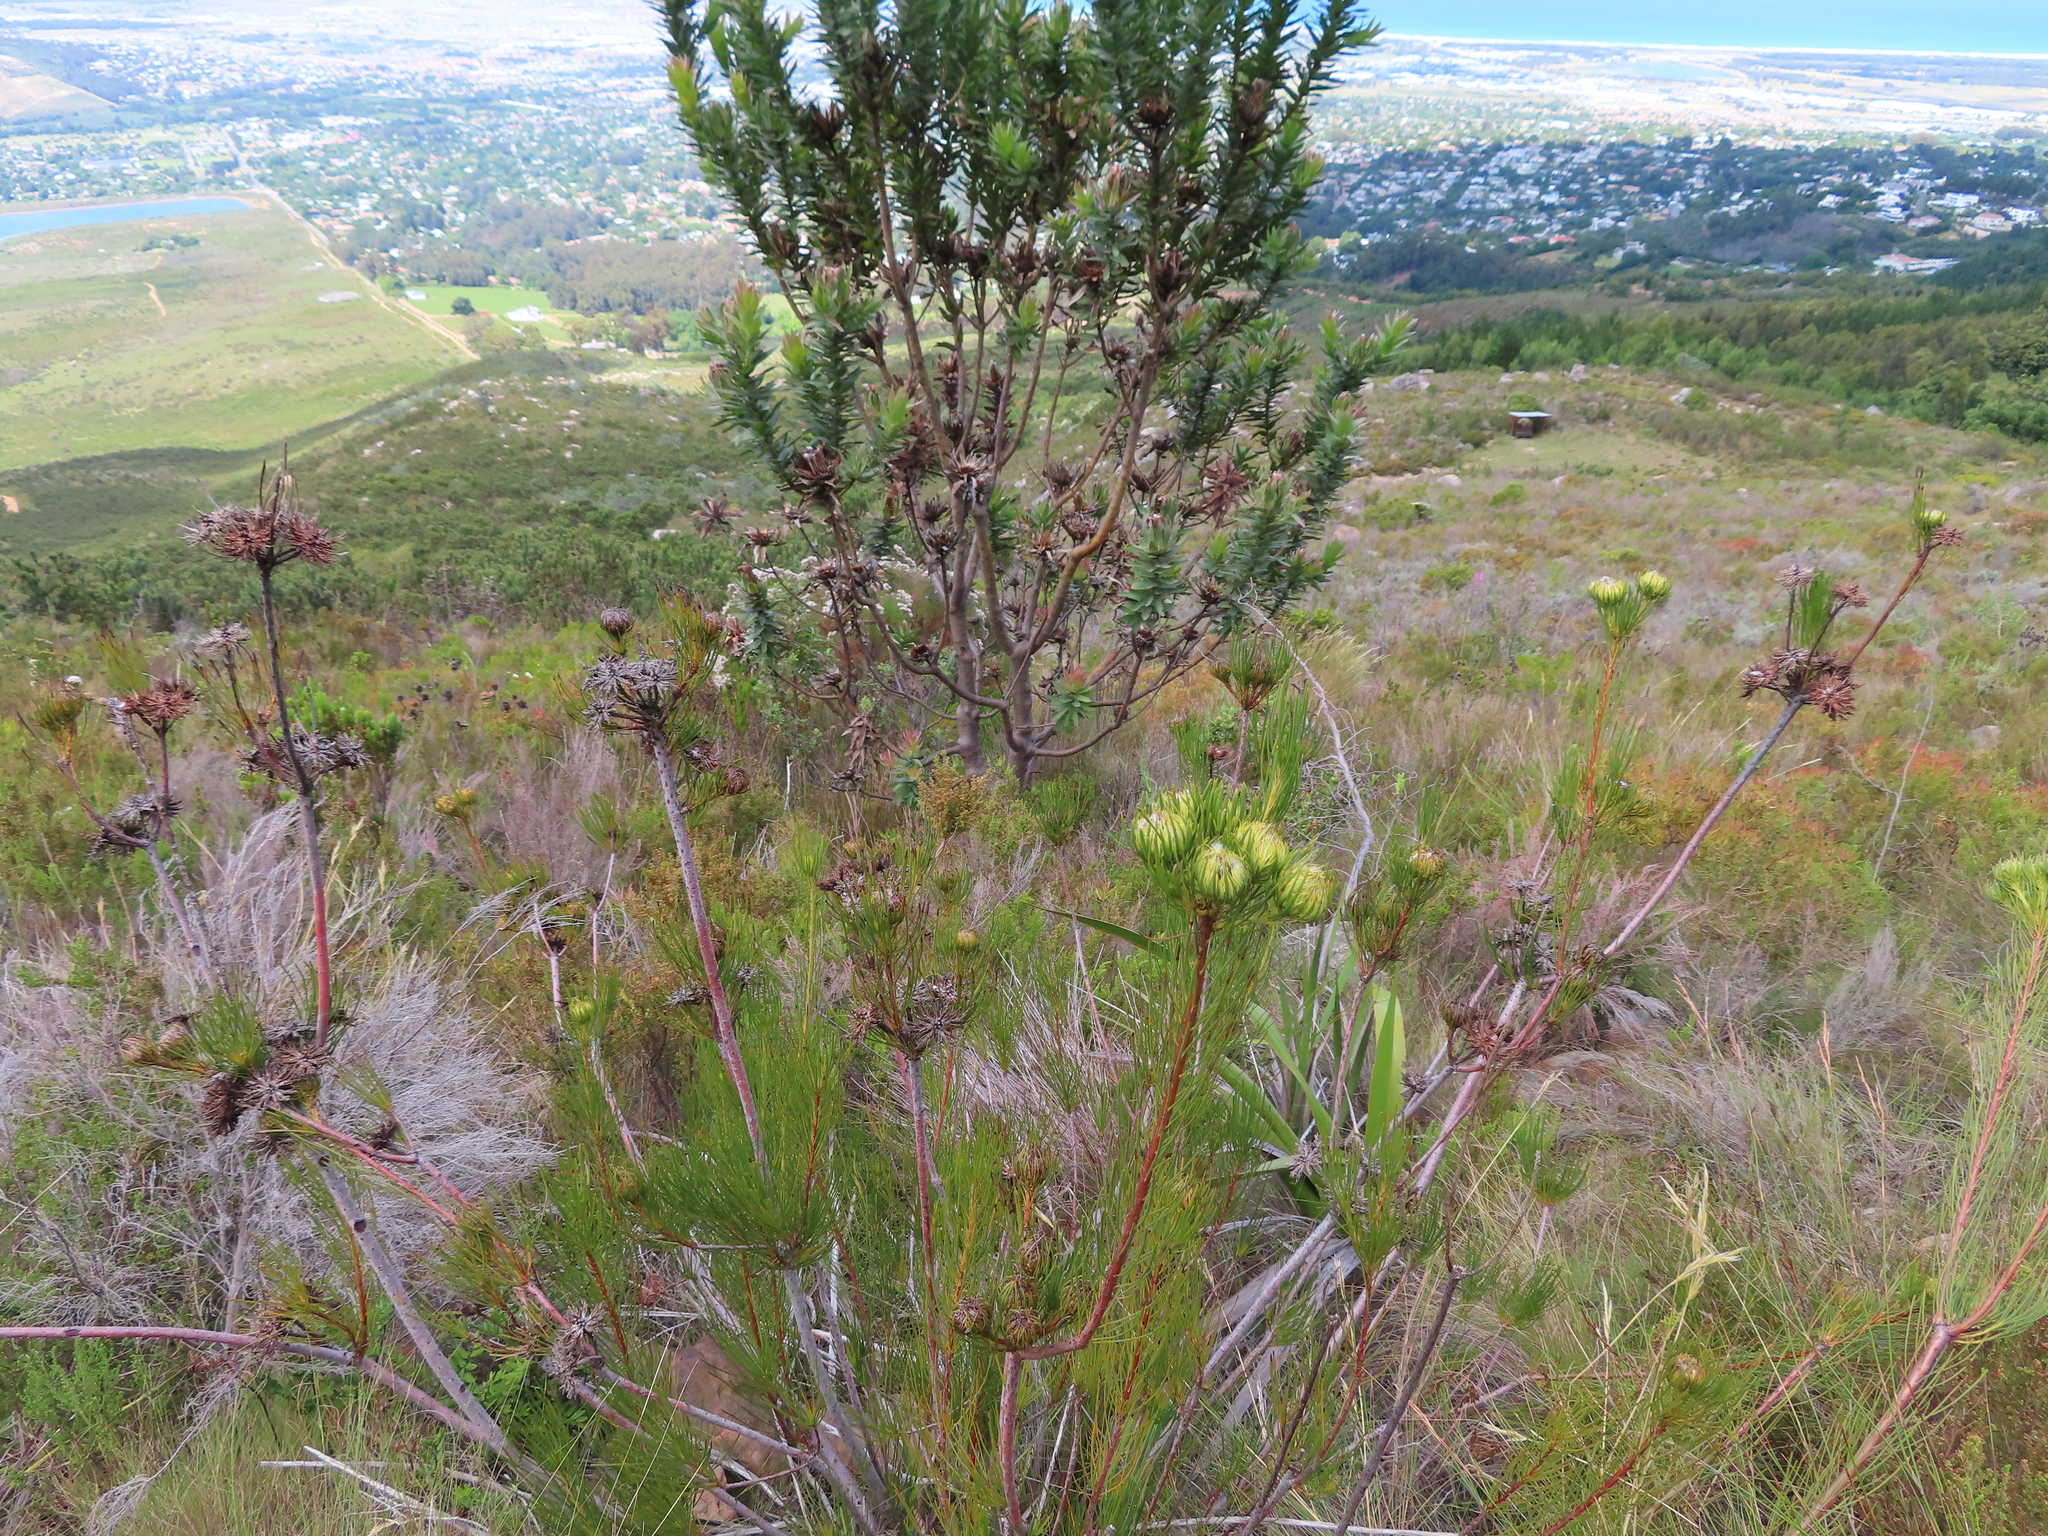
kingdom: Plantae
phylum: Tracheophyta
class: Magnoliopsida
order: Proteales
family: Proteaceae
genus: Aulax
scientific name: Aulax pallasia
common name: Needle-leaf featherbush
